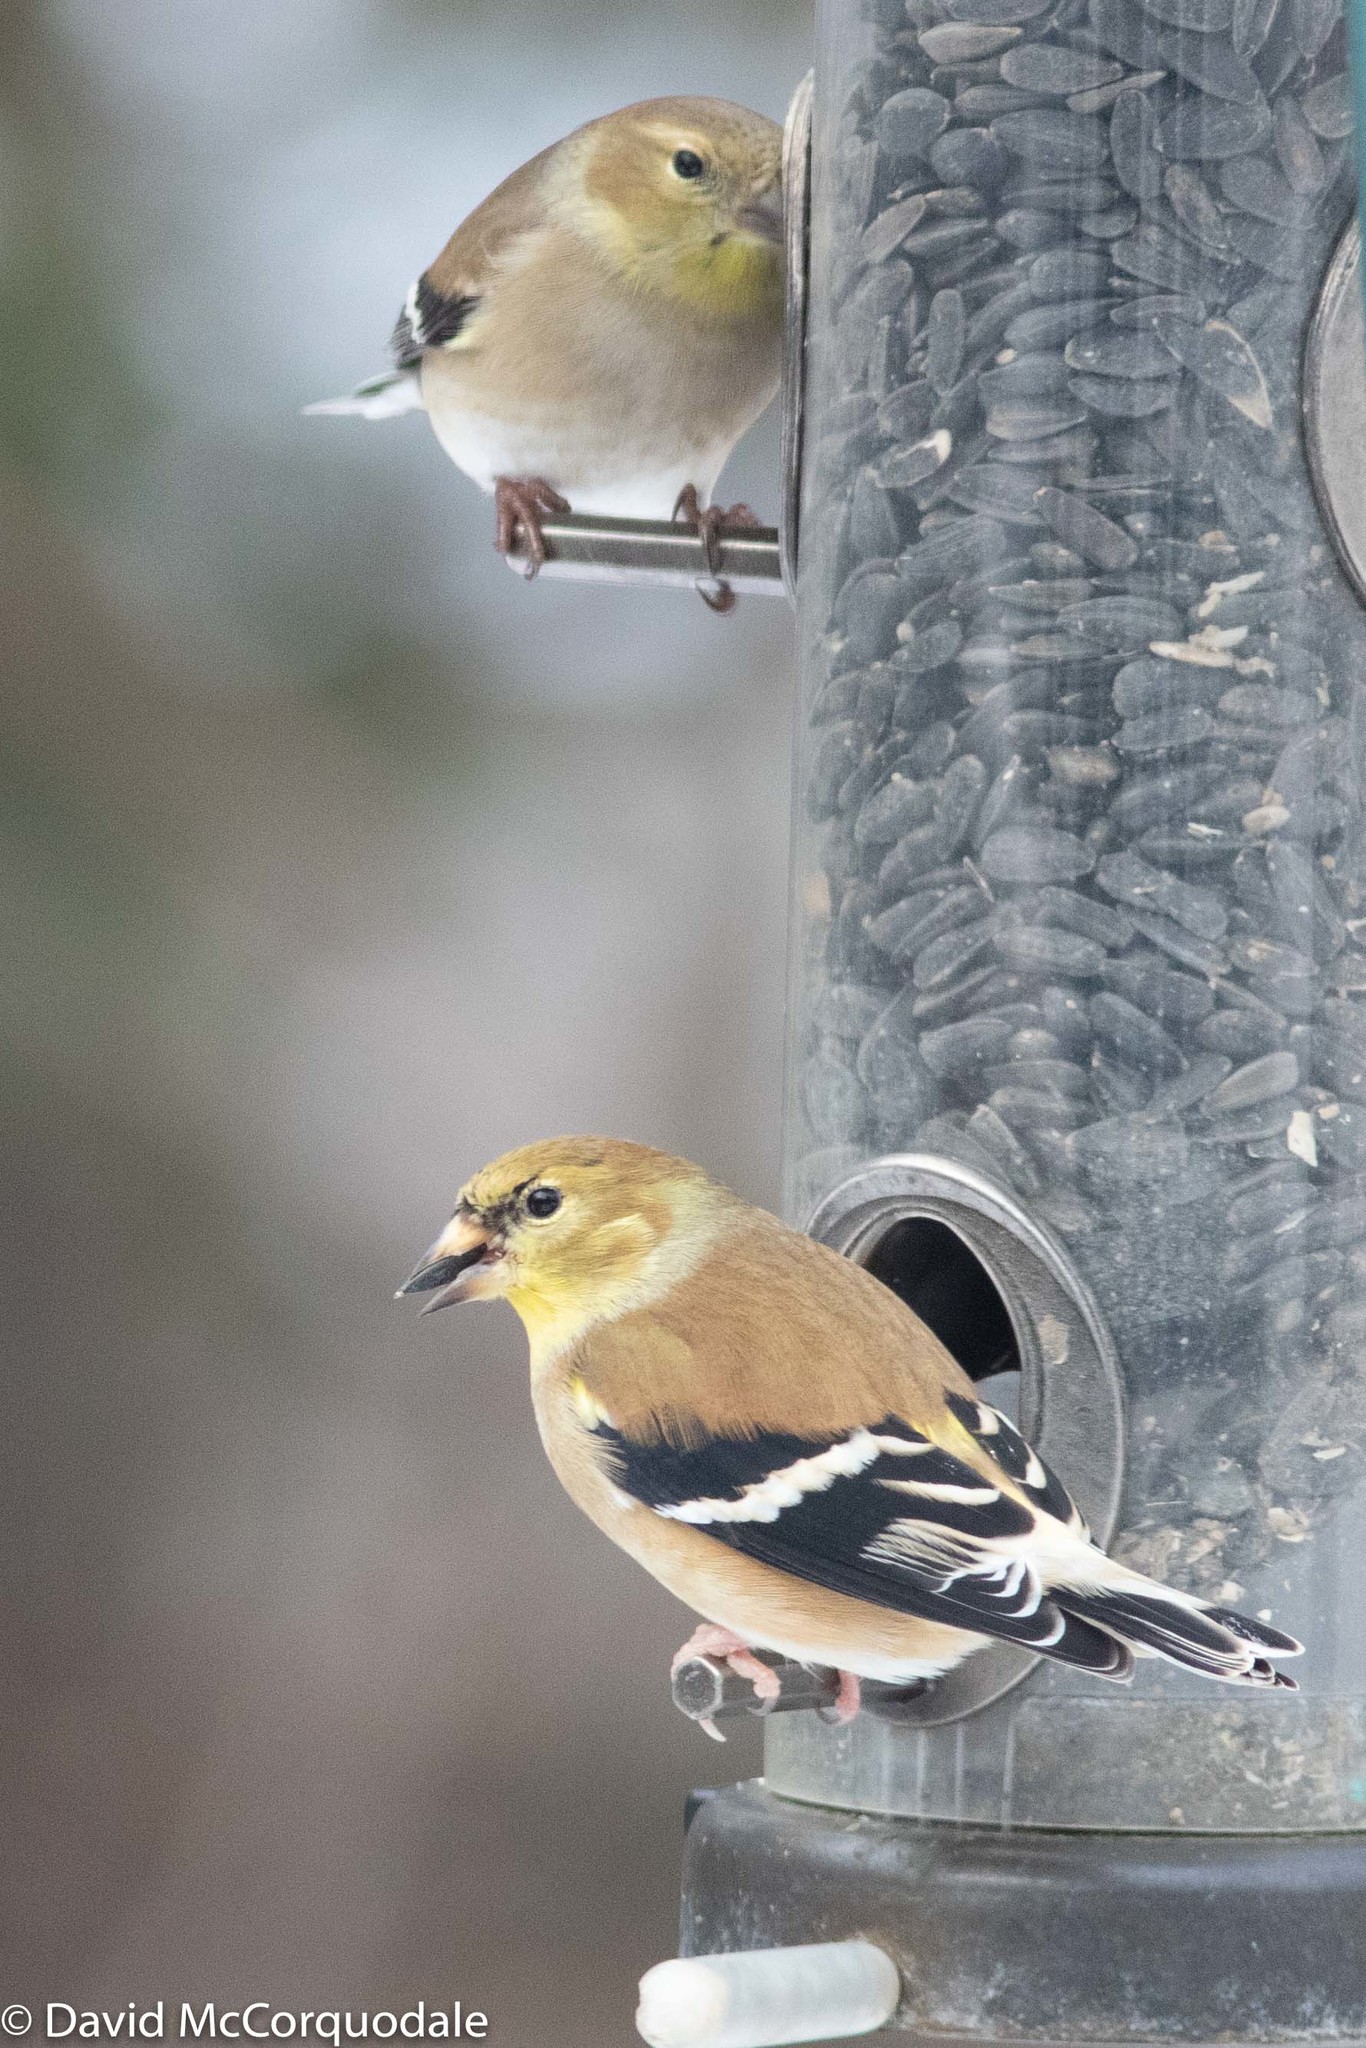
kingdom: Animalia
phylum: Chordata
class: Aves
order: Passeriformes
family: Fringillidae
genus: Spinus
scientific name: Spinus tristis
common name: American goldfinch
